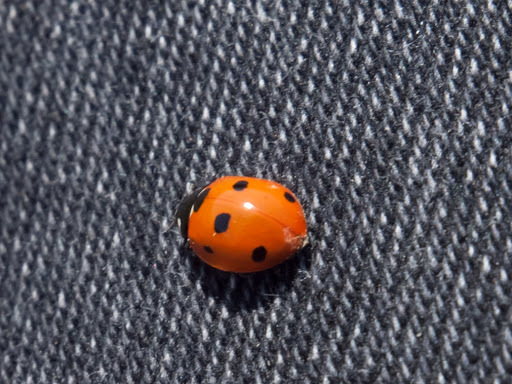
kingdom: Animalia
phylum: Arthropoda
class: Insecta
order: Coleoptera
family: Coccinellidae
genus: Coccinella
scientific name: Coccinella septempunctata
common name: Sevenspotted lady beetle
